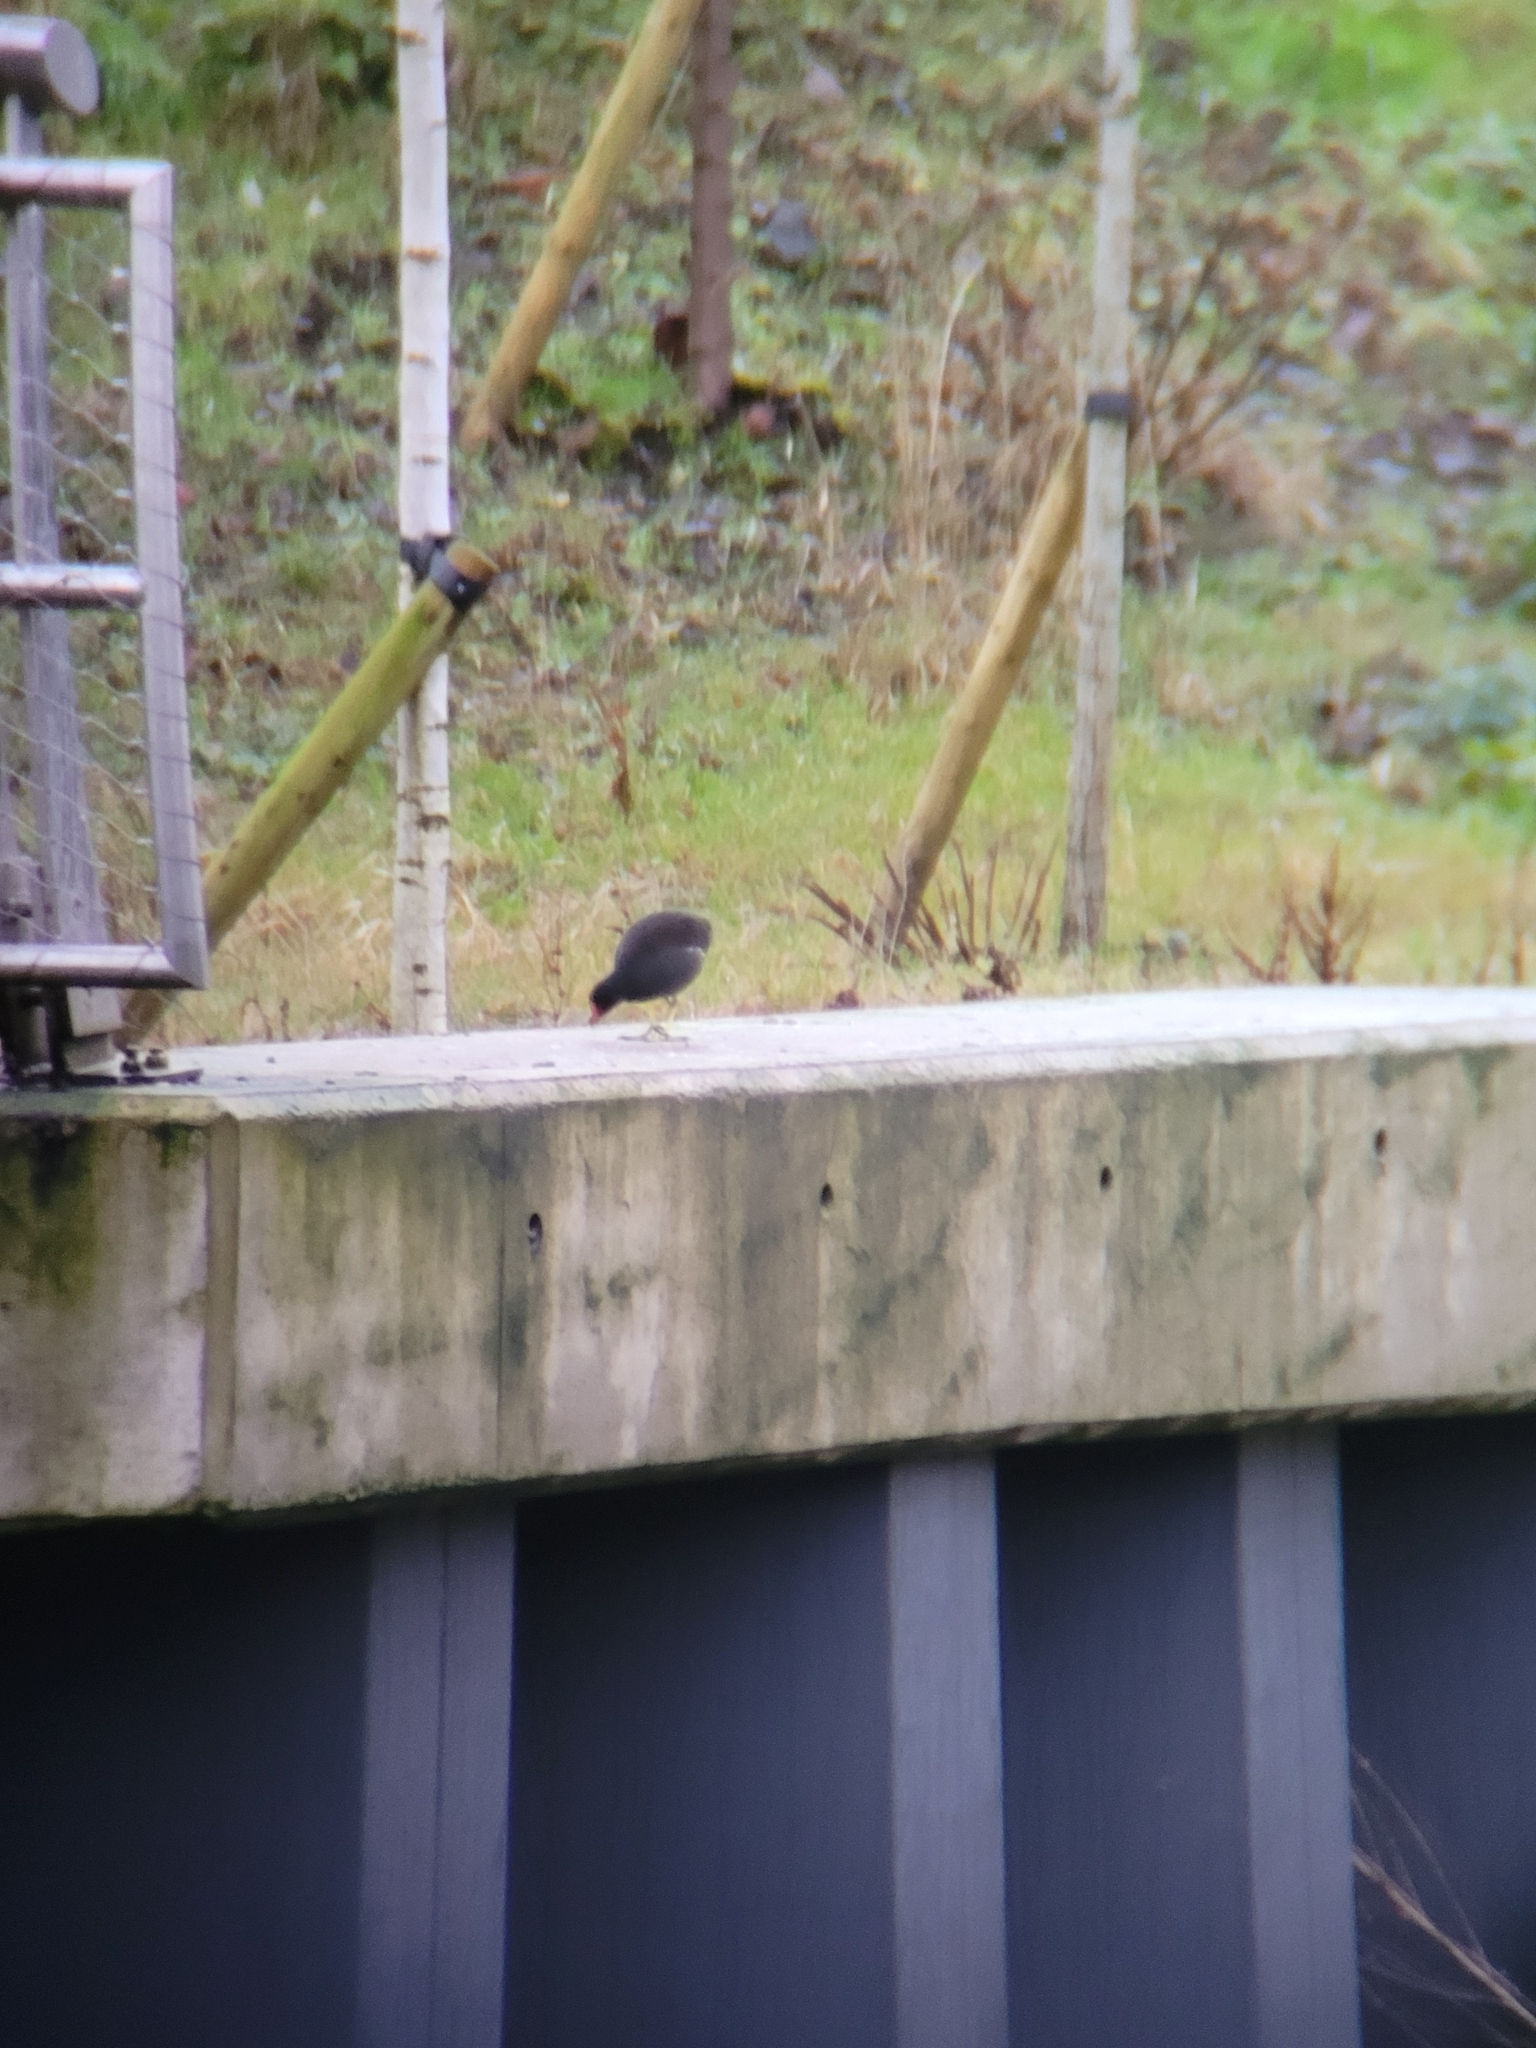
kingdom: Animalia
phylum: Chordata
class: Aves
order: Gruiformes
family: Rallidae
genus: Gallinula
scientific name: Gallinula chloropus
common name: Common moorhen
